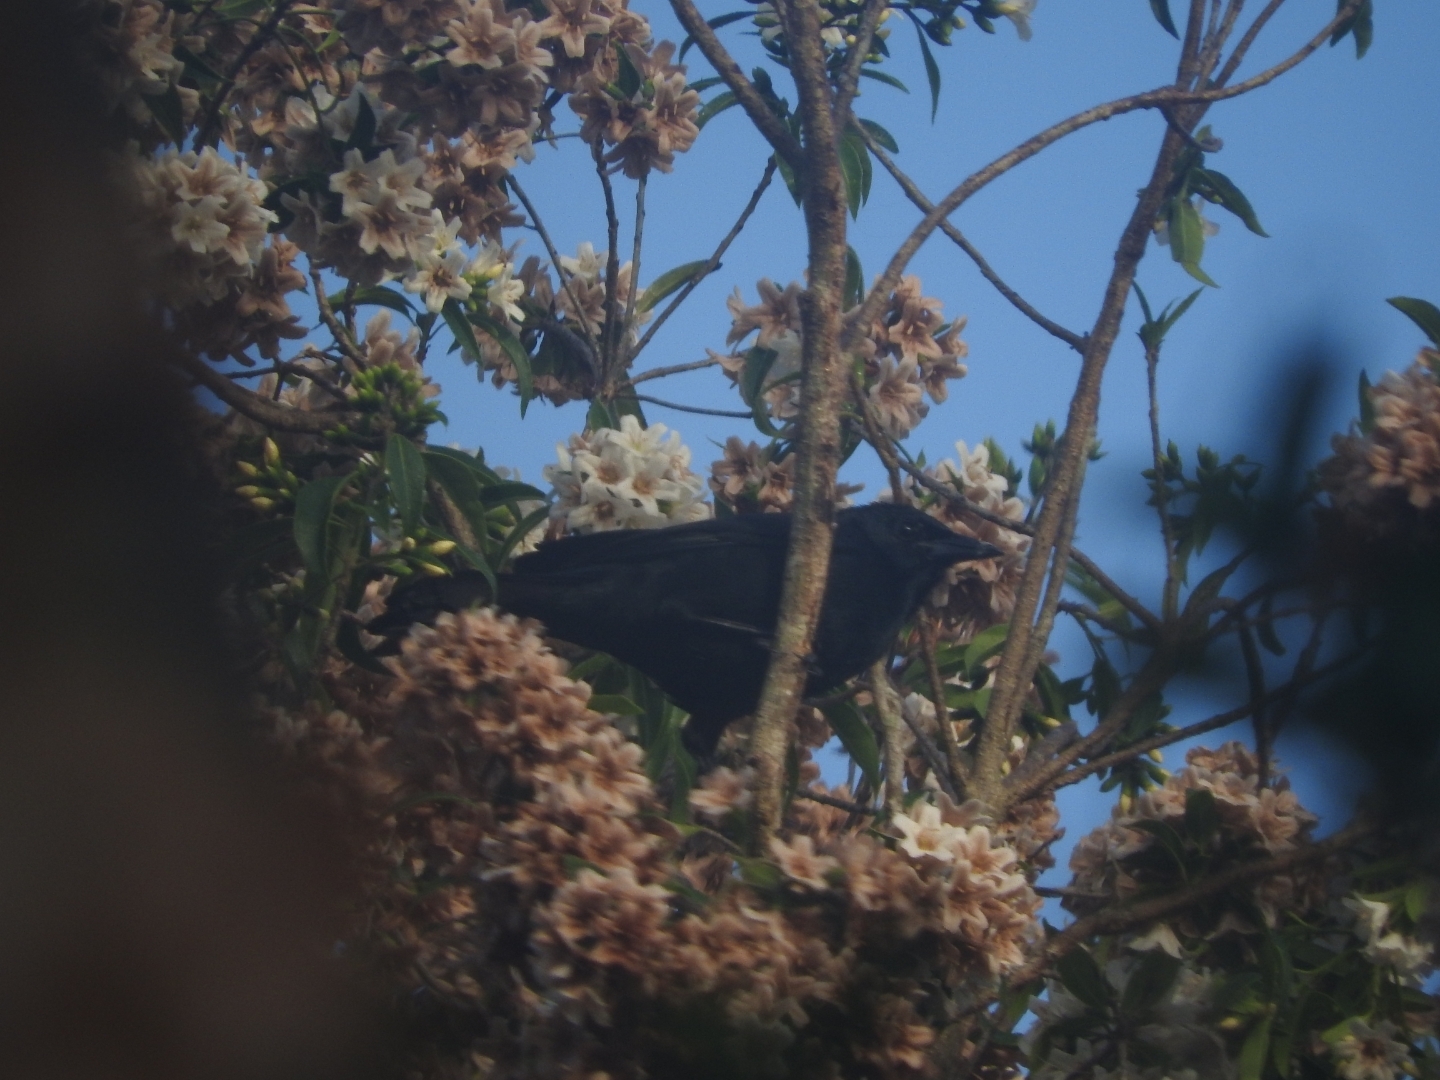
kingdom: Animalia
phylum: Chordata
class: Aves
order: Passeriformes
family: Icteridae
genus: Dives
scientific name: Dives dives
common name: Melodious blackbird
